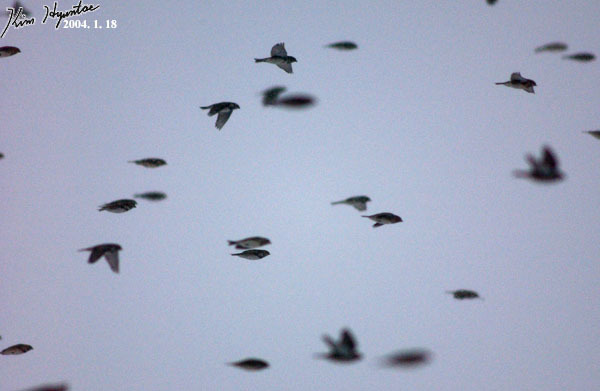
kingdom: Animalia
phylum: Chordata
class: Aves
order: Passeriformes
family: Calcariidae
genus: Calcarius
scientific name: Calcarius lapponicus
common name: Lapland longspur
